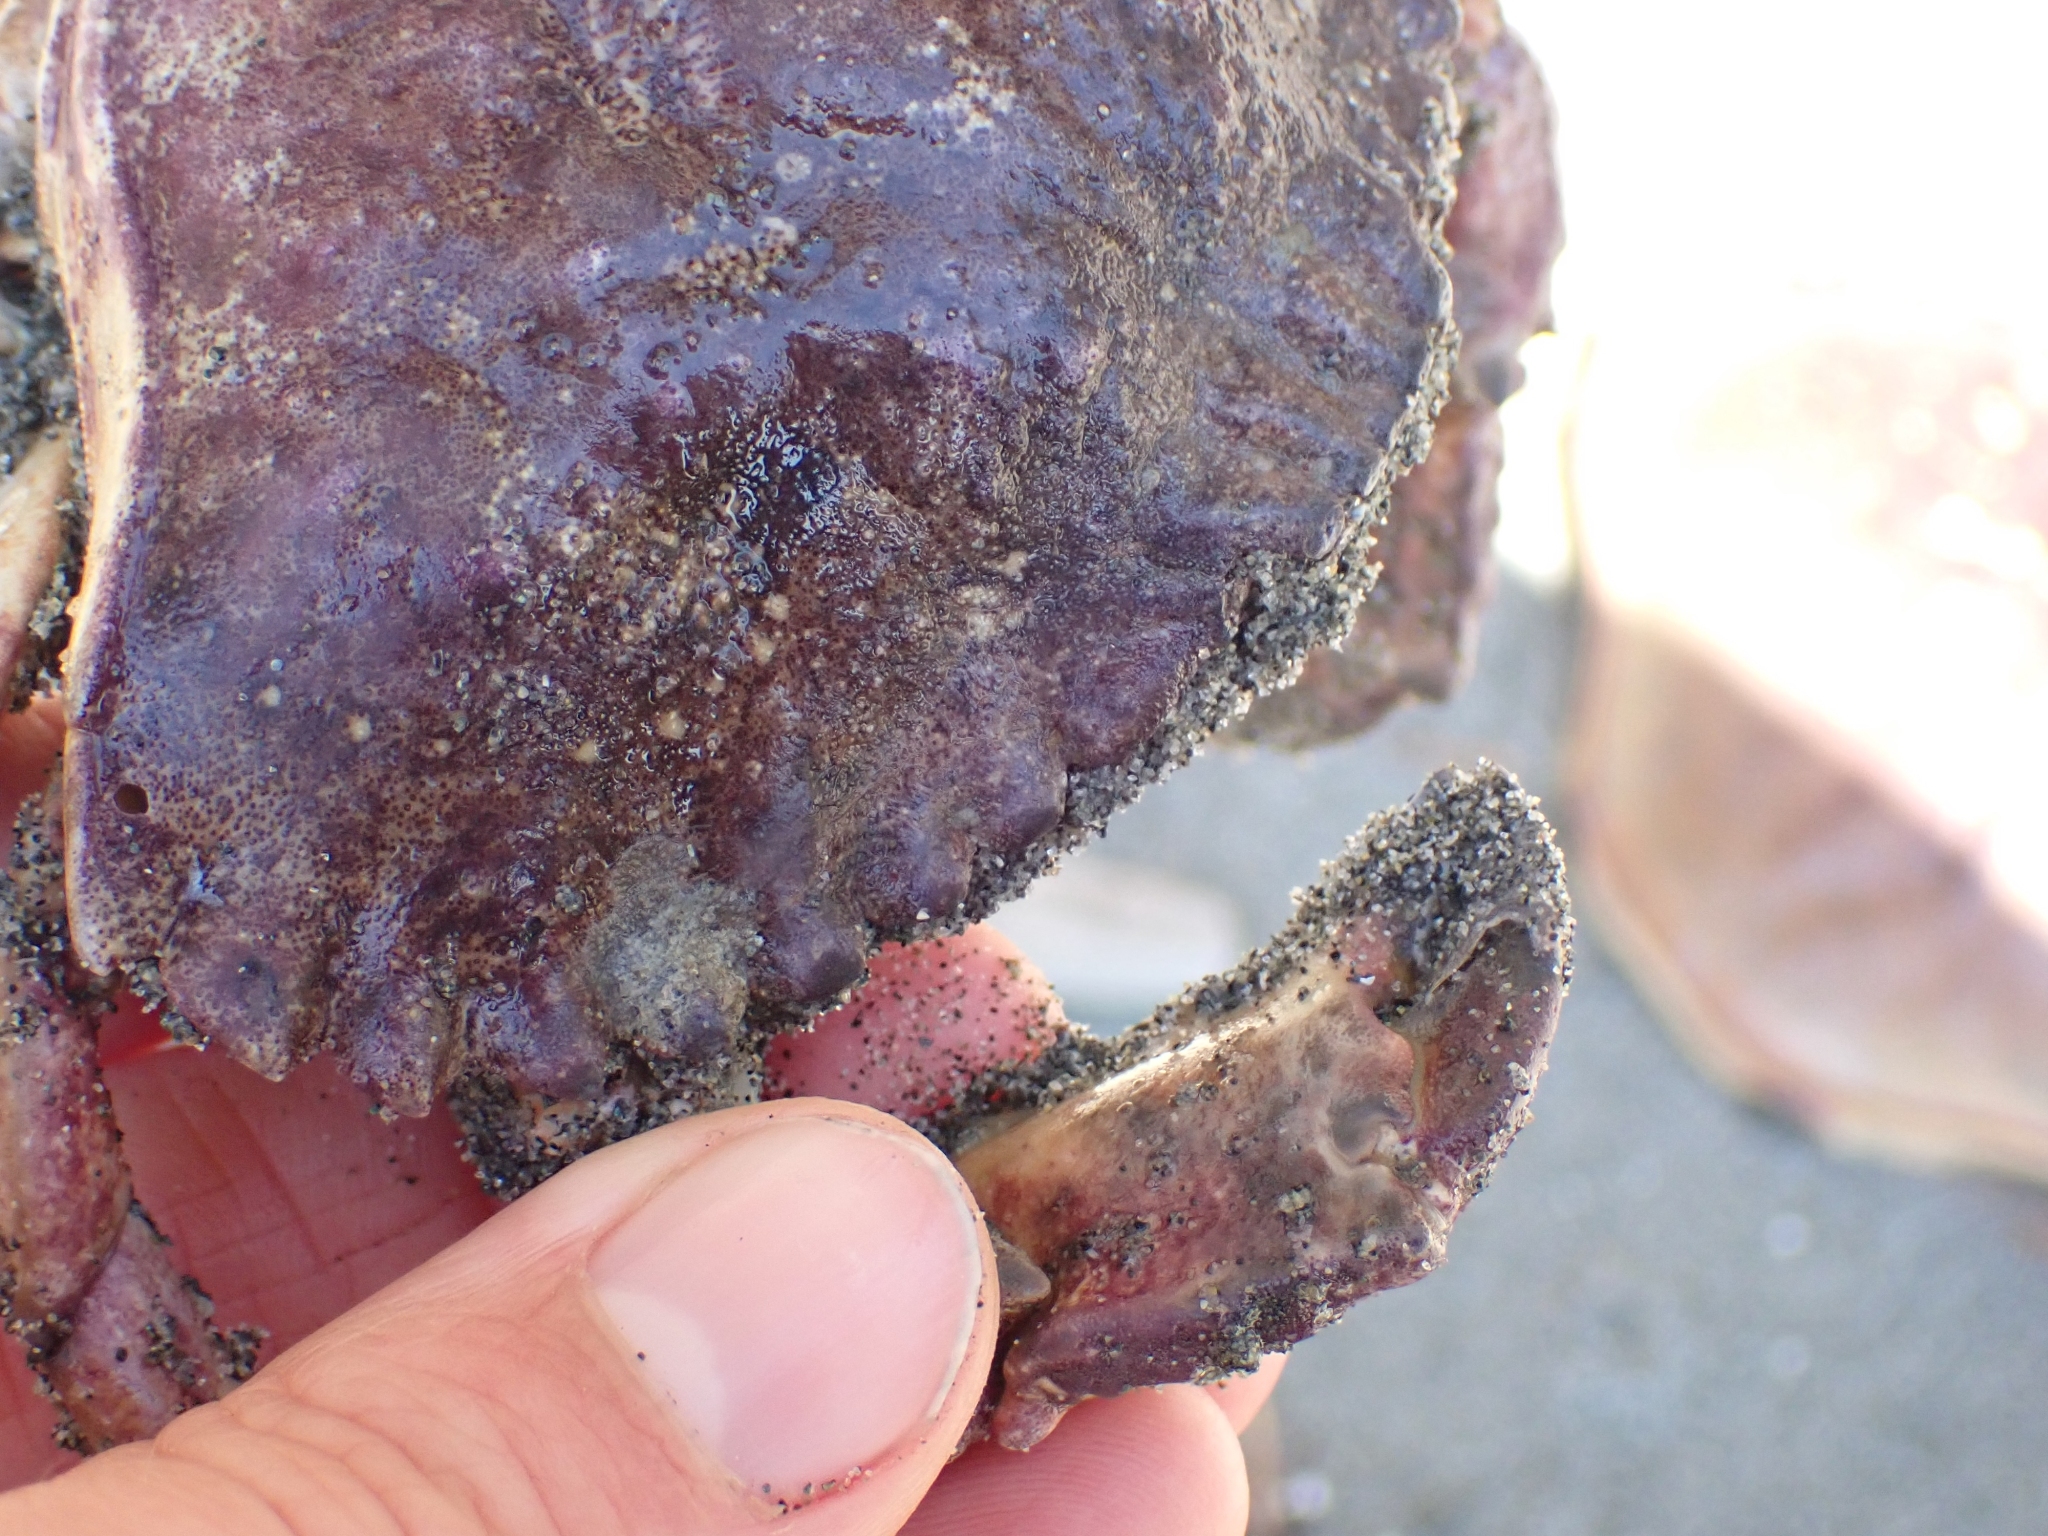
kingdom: Animalia
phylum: Arthropoda
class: Malacostraca
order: Decapoda
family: Cancridae
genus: Cancer
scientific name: Cancer productus
